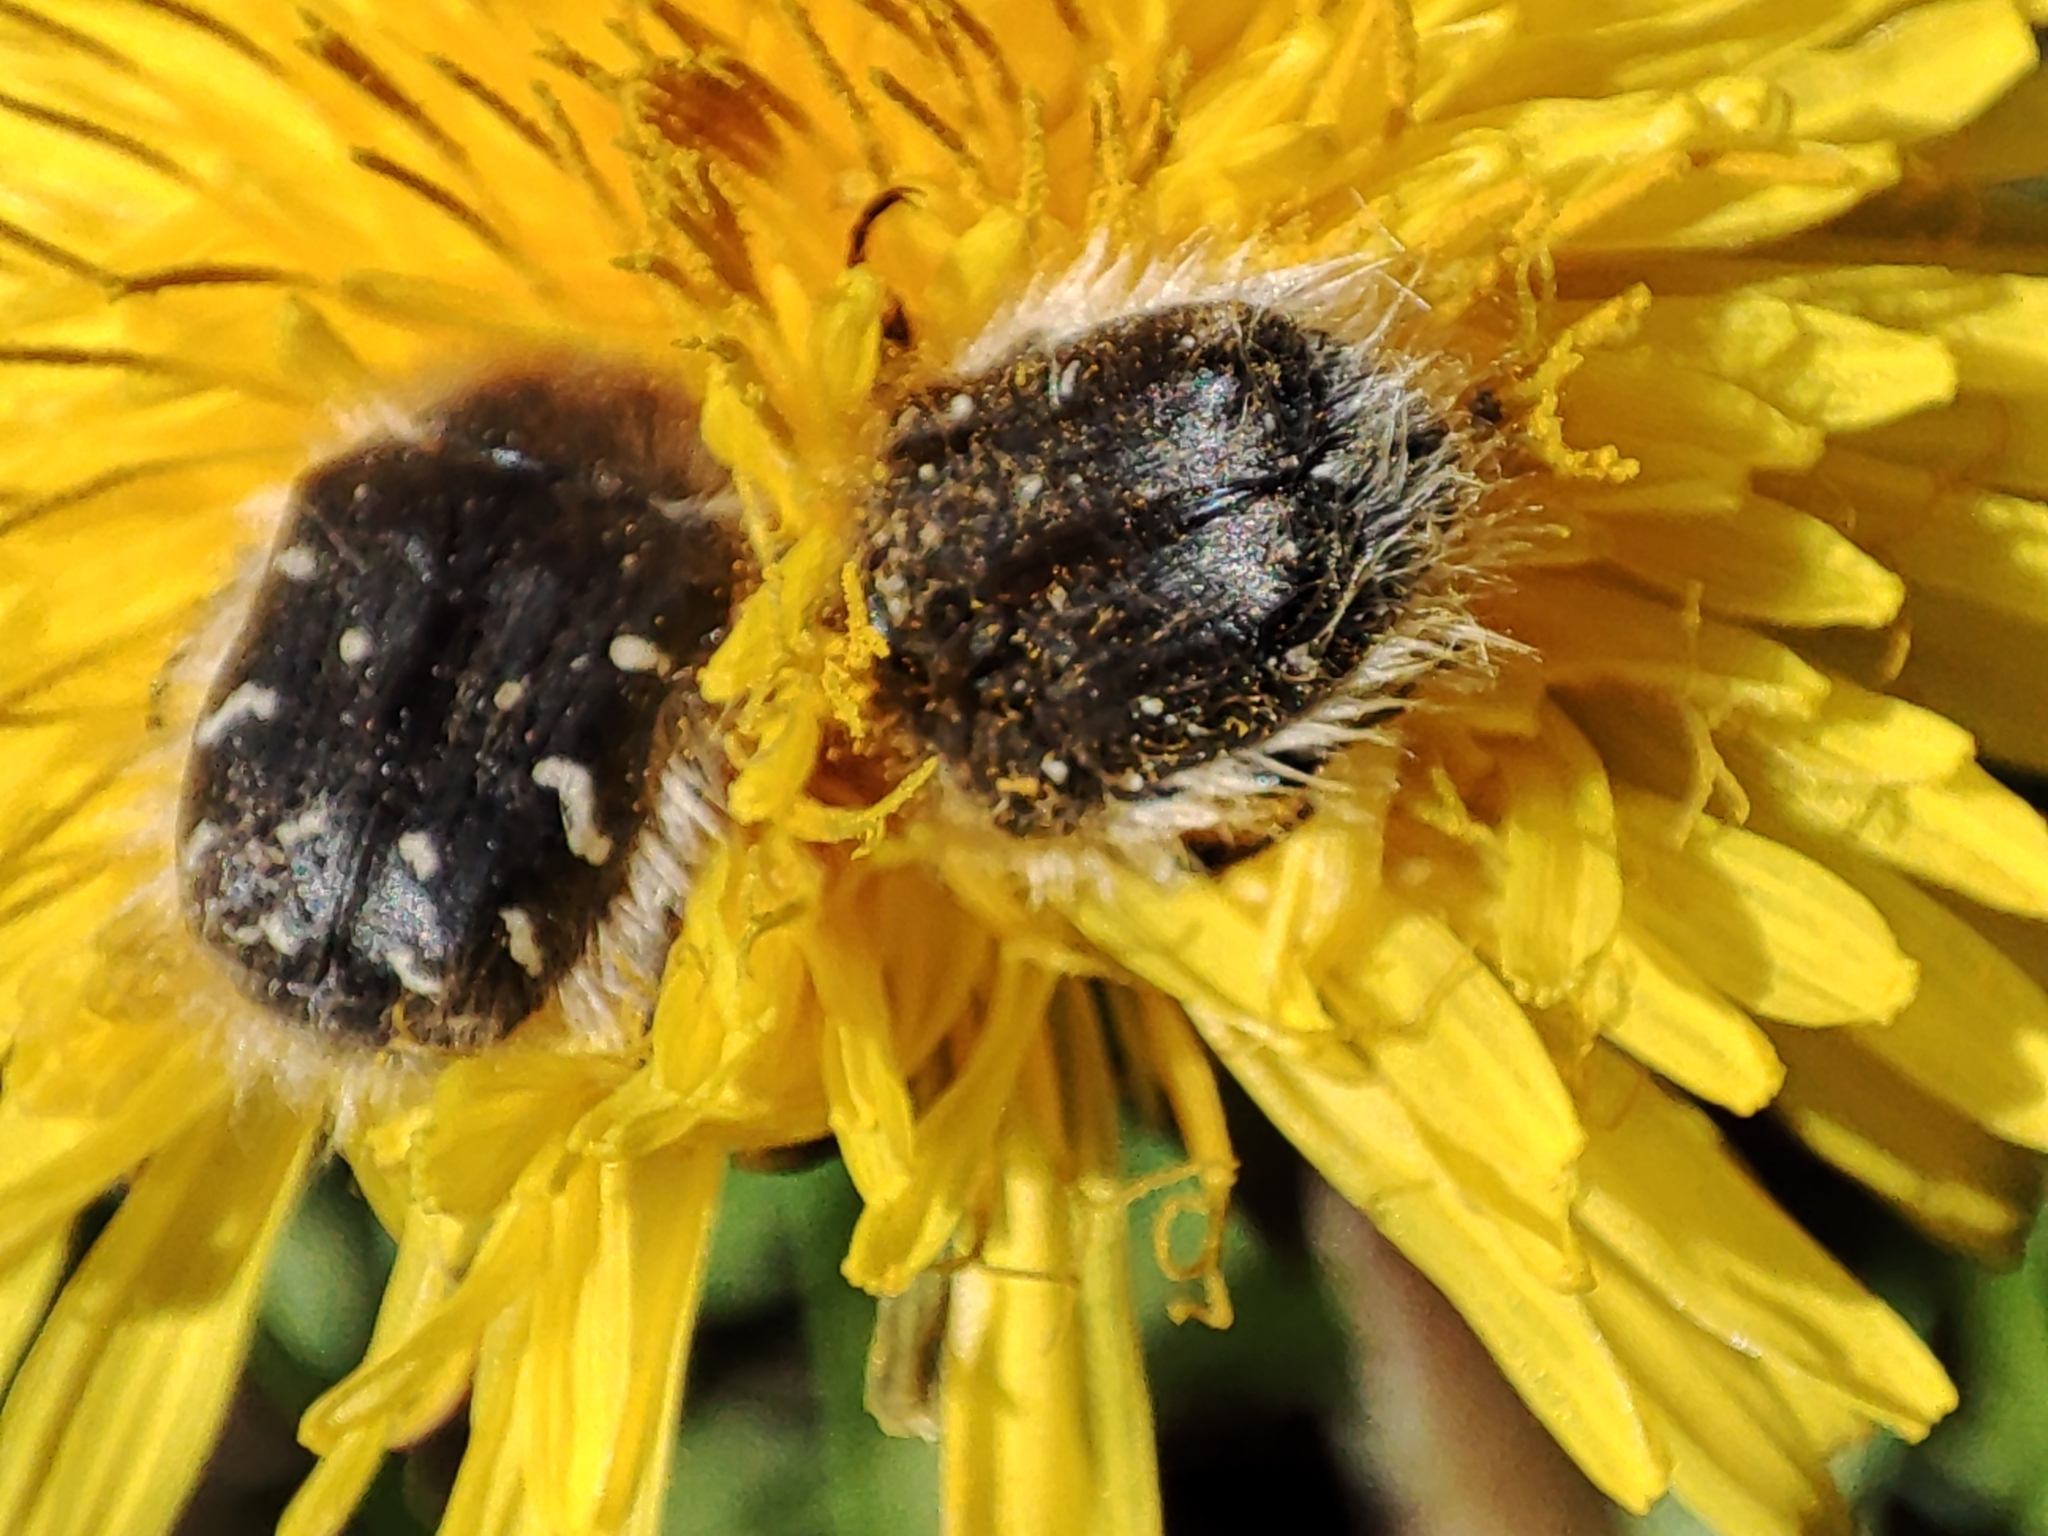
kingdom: Animalia
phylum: Arthropoda
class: Insecta
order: Coleoptera
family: Scarabaeidae
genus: Tropinota
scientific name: Tropinota hirta
